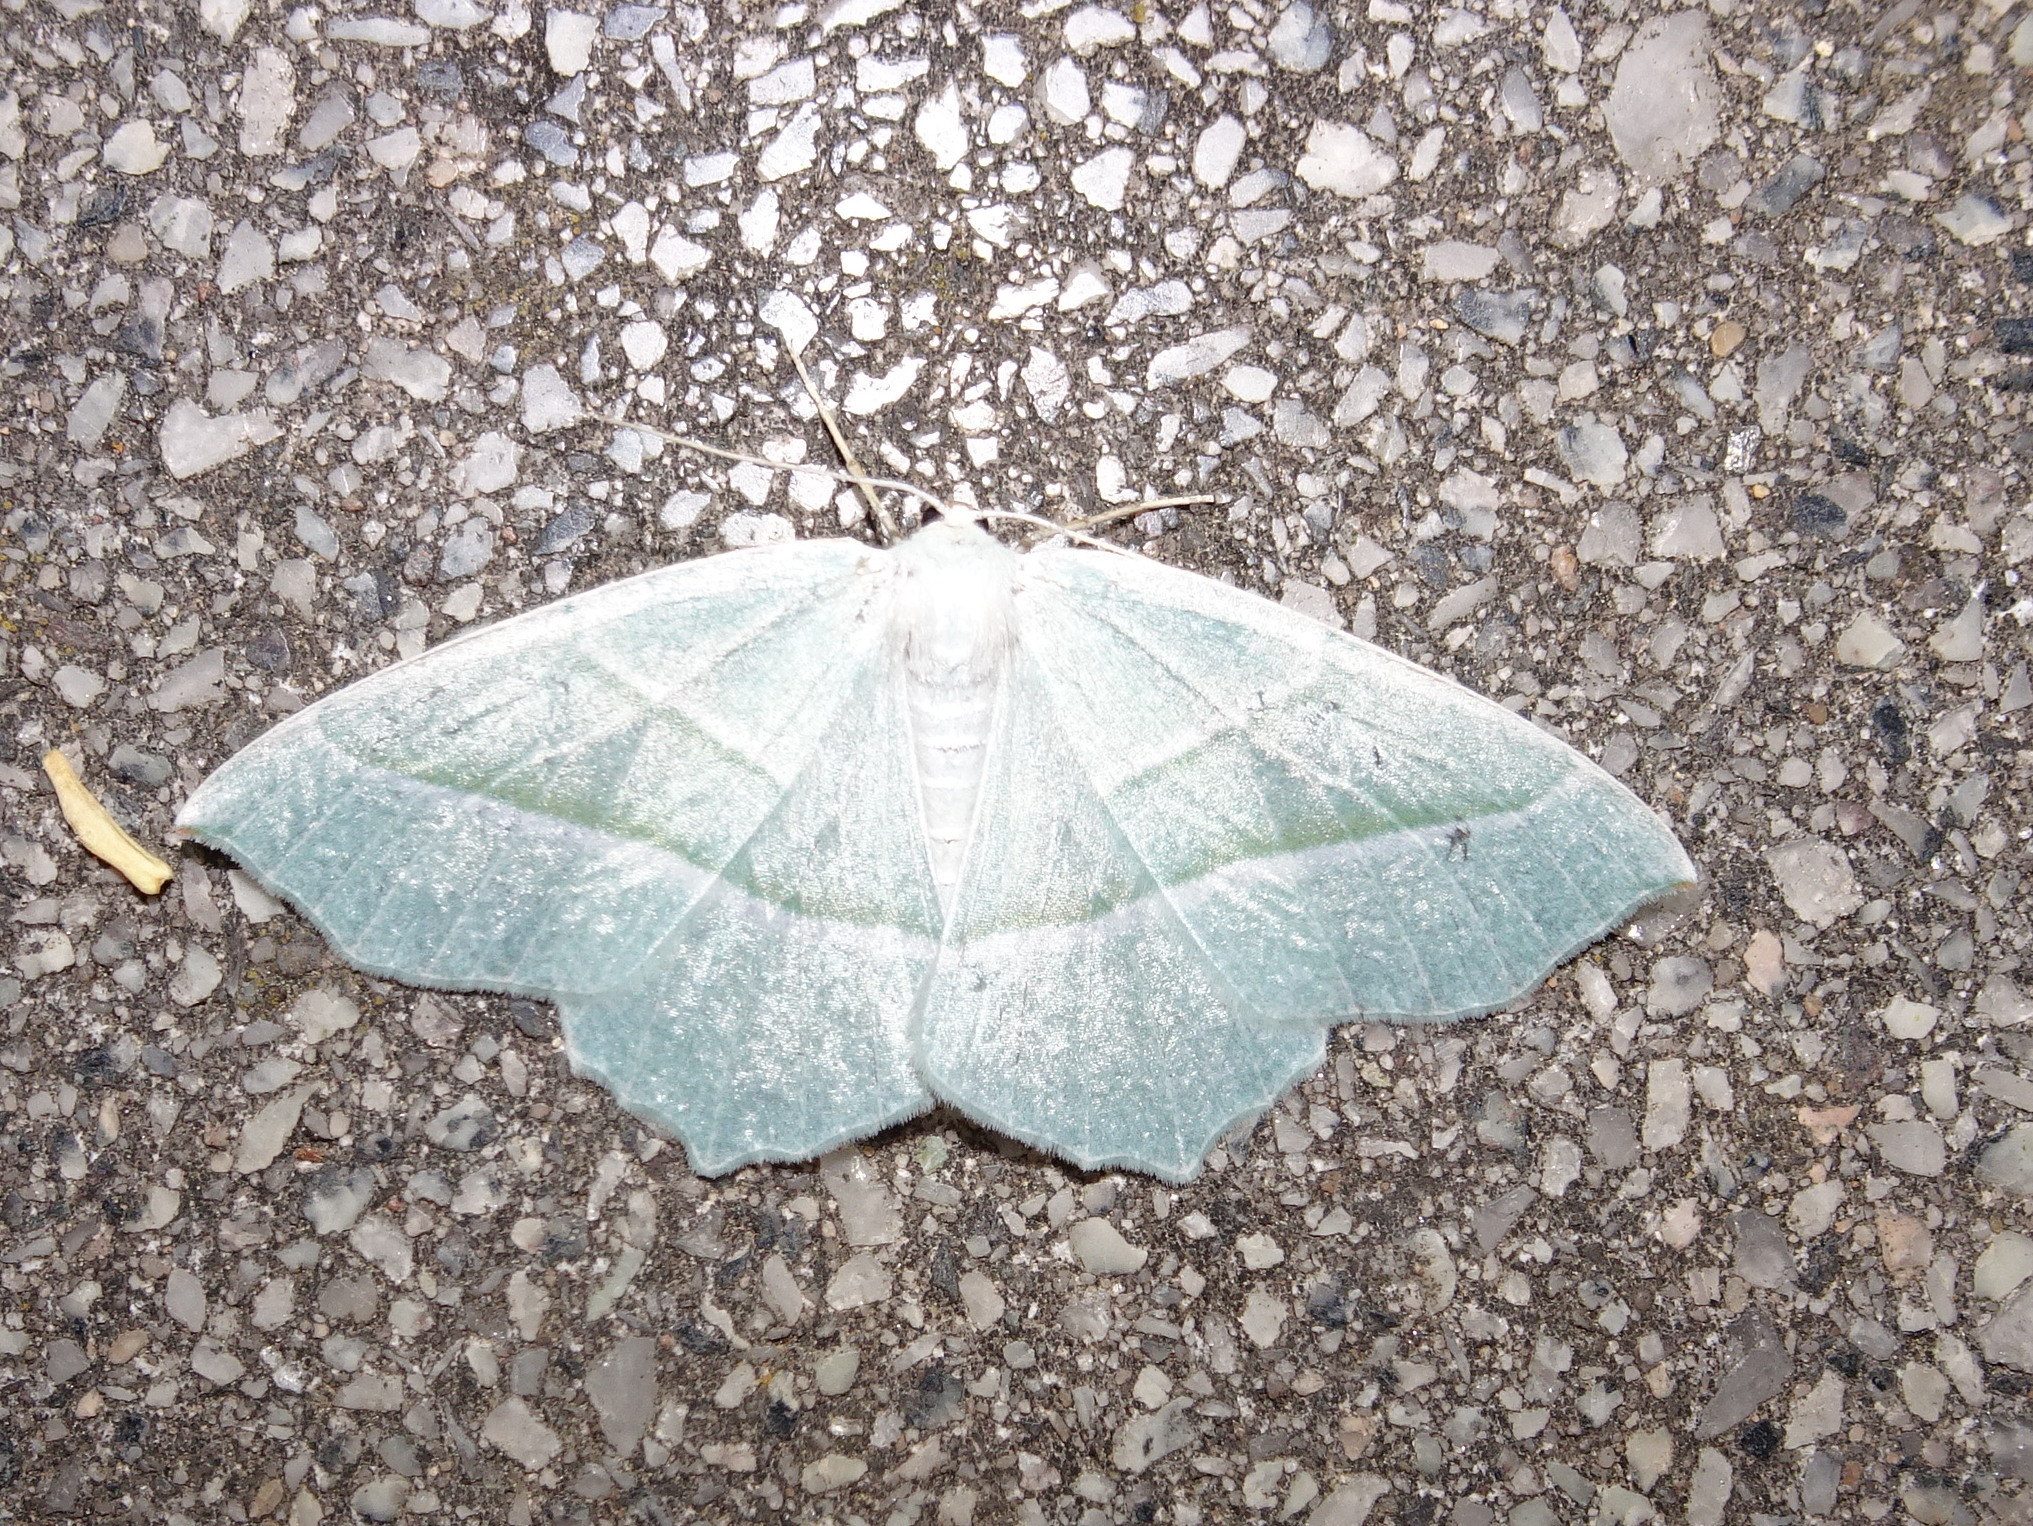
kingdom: Animalia
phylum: Arthropoda
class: Insecta
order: Lepidoptera
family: Geometridae
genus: Campaea
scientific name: Campaea margaritaria
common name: Light emerald
